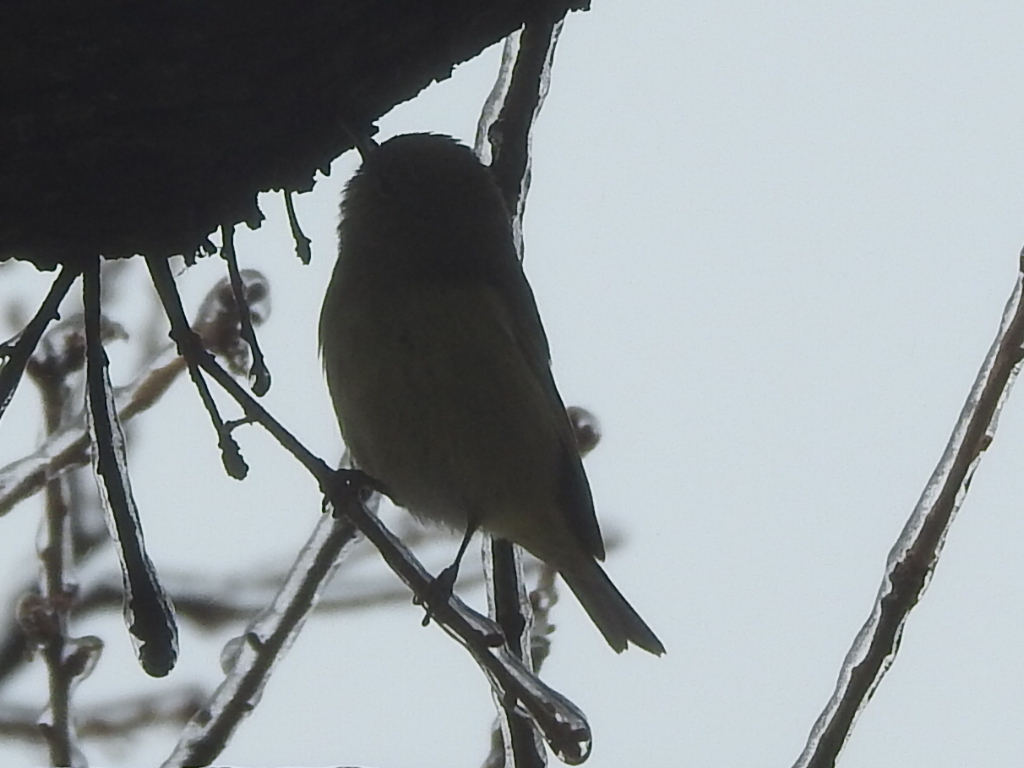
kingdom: Animalia
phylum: Chordata
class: Aves
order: Passeriformes
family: Parulidae
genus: Leiothlypis
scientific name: Leiothlypis celata
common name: Orange-crowned warbler
